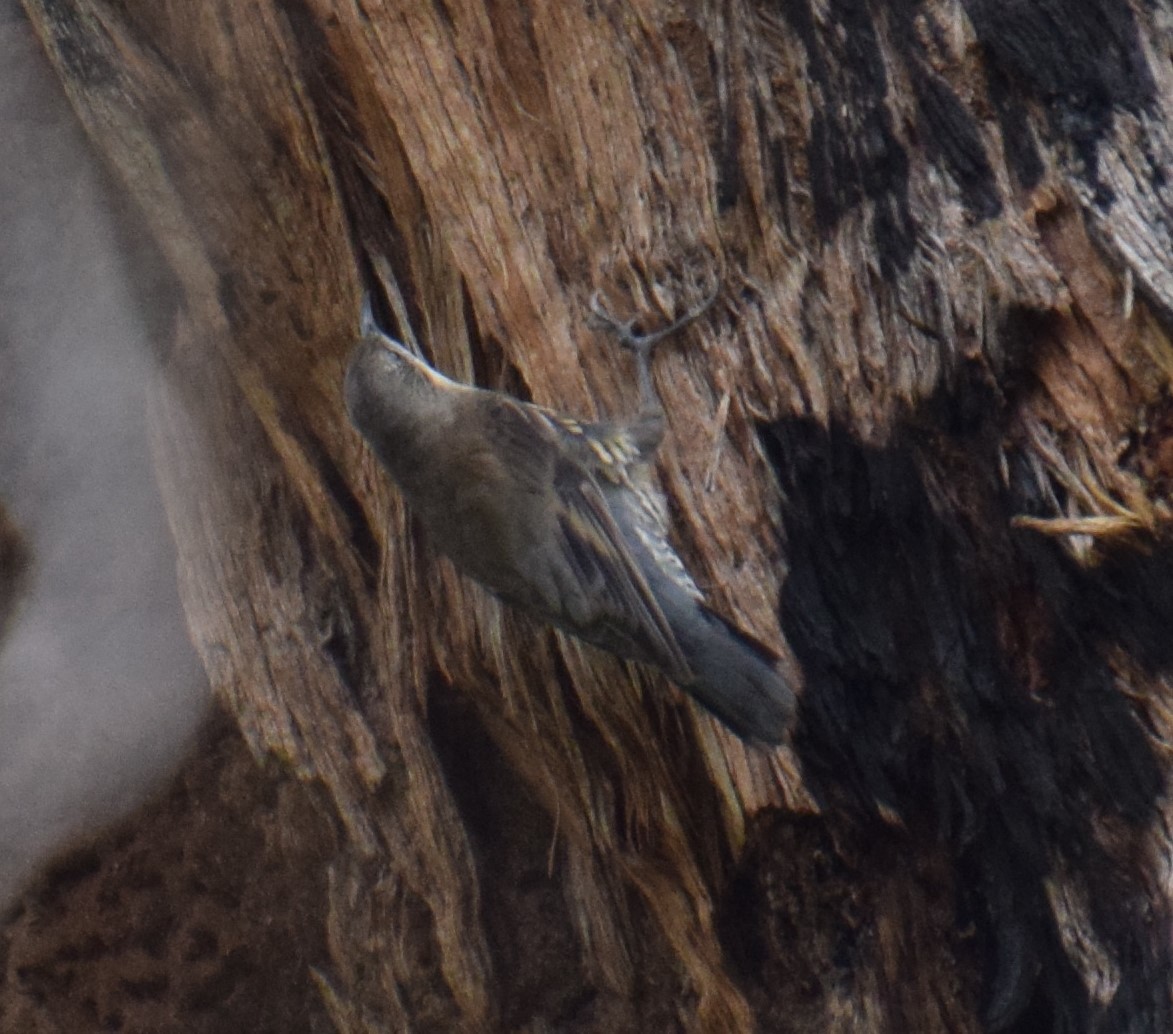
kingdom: Animalia
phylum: Chordata
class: Aves
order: Passeriformes
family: Climacteridae
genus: Cormobates
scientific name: Cormobates leucophaea
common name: White-throated treecreeper
